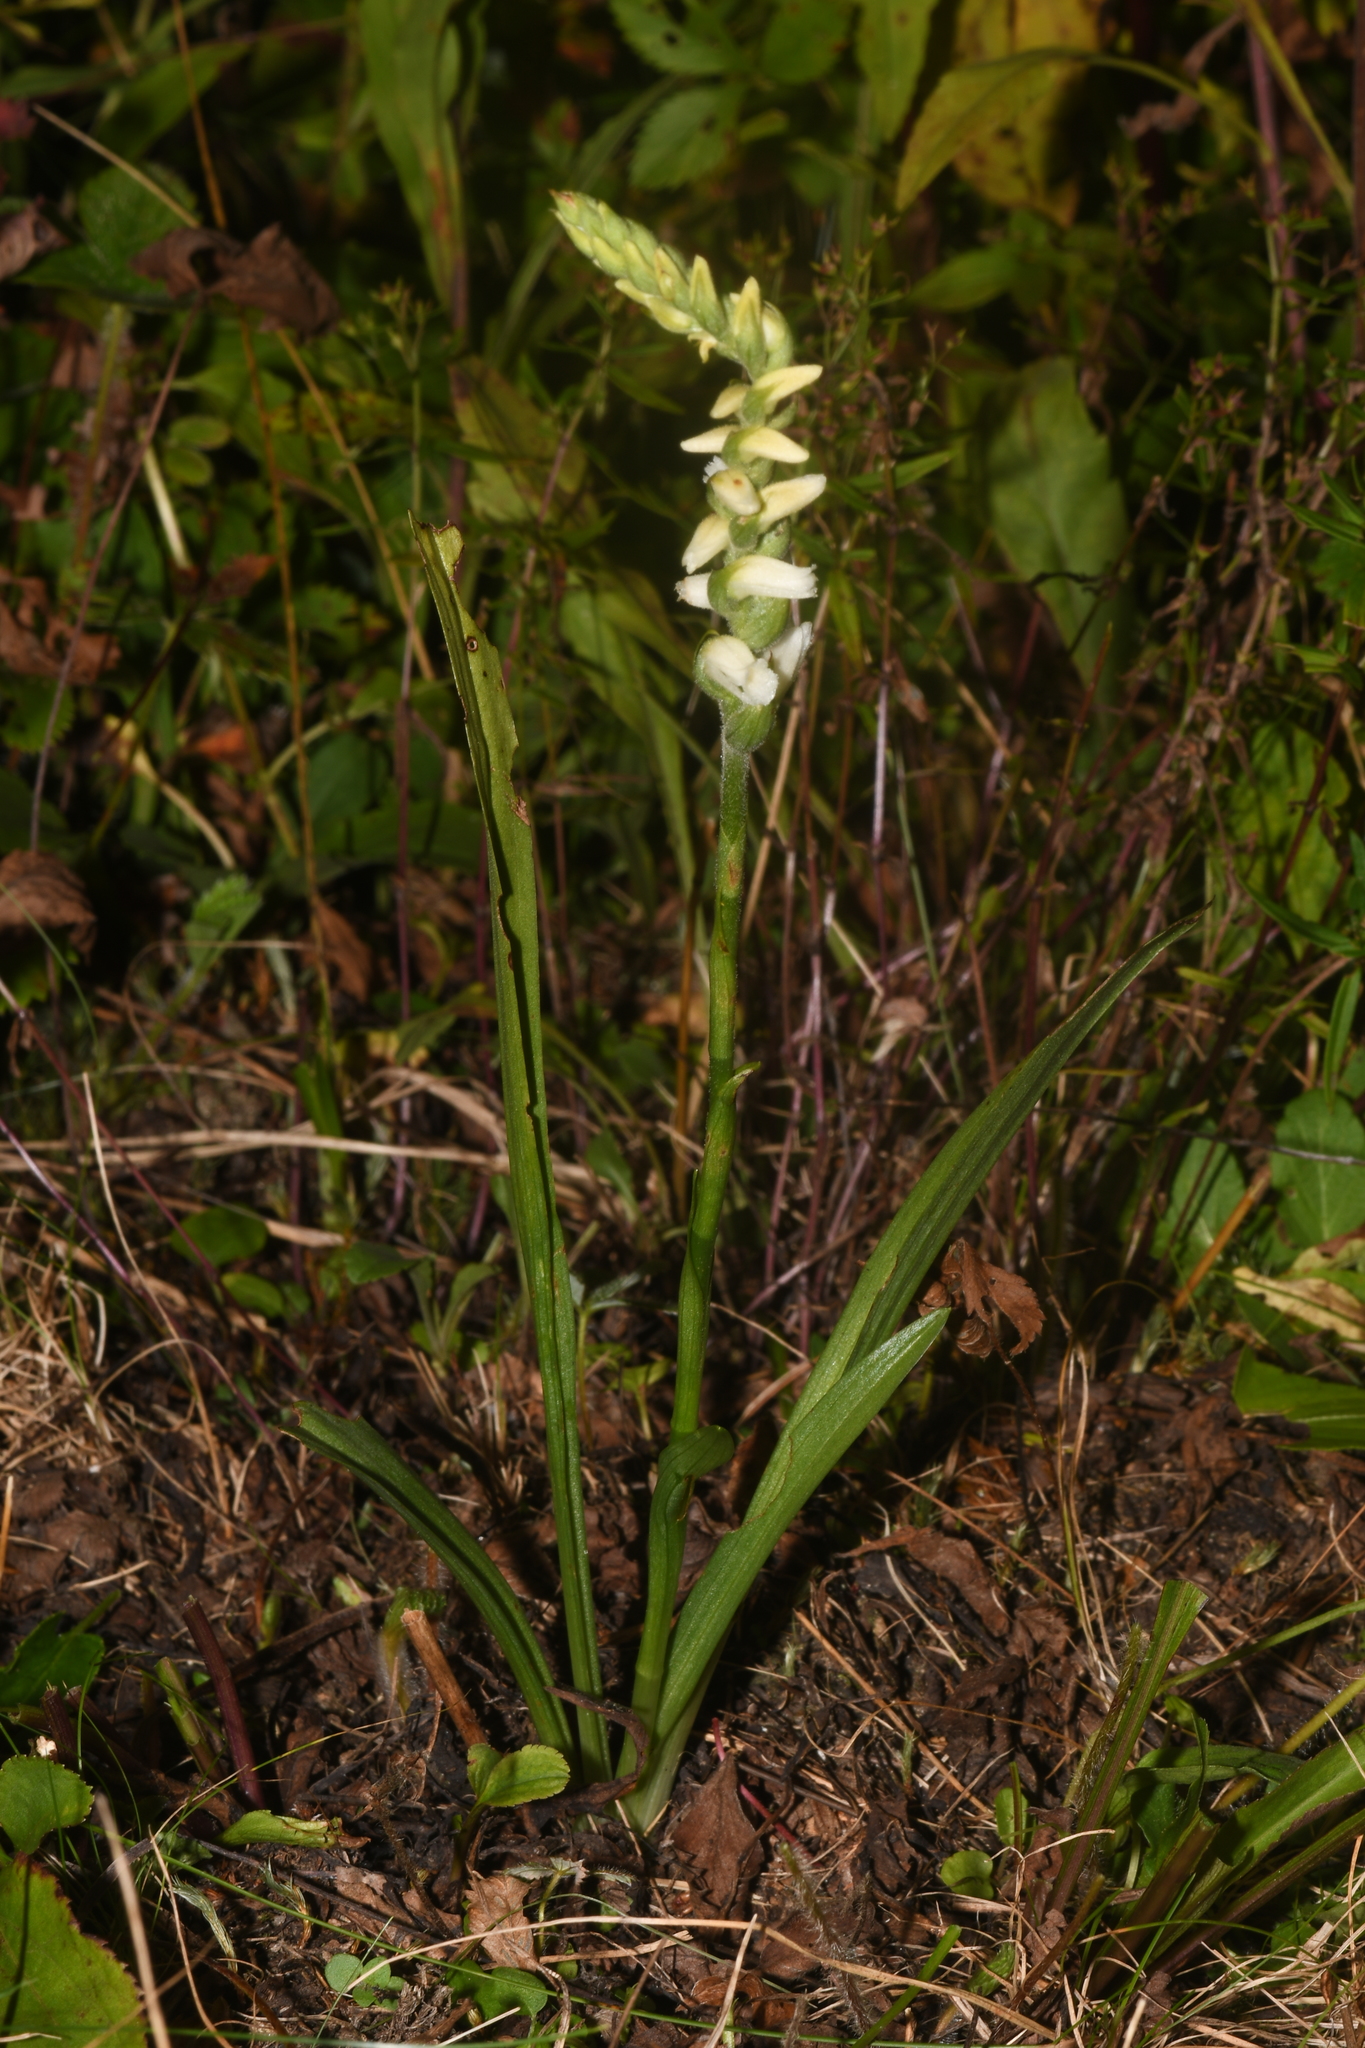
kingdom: Plantae
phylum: Tracheophyta
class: Liliopsida
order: Asparagales
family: Orchidaceae
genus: Spiranthes
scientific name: Spiranthes ochroleuca
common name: Yellow ladies'-tresses
